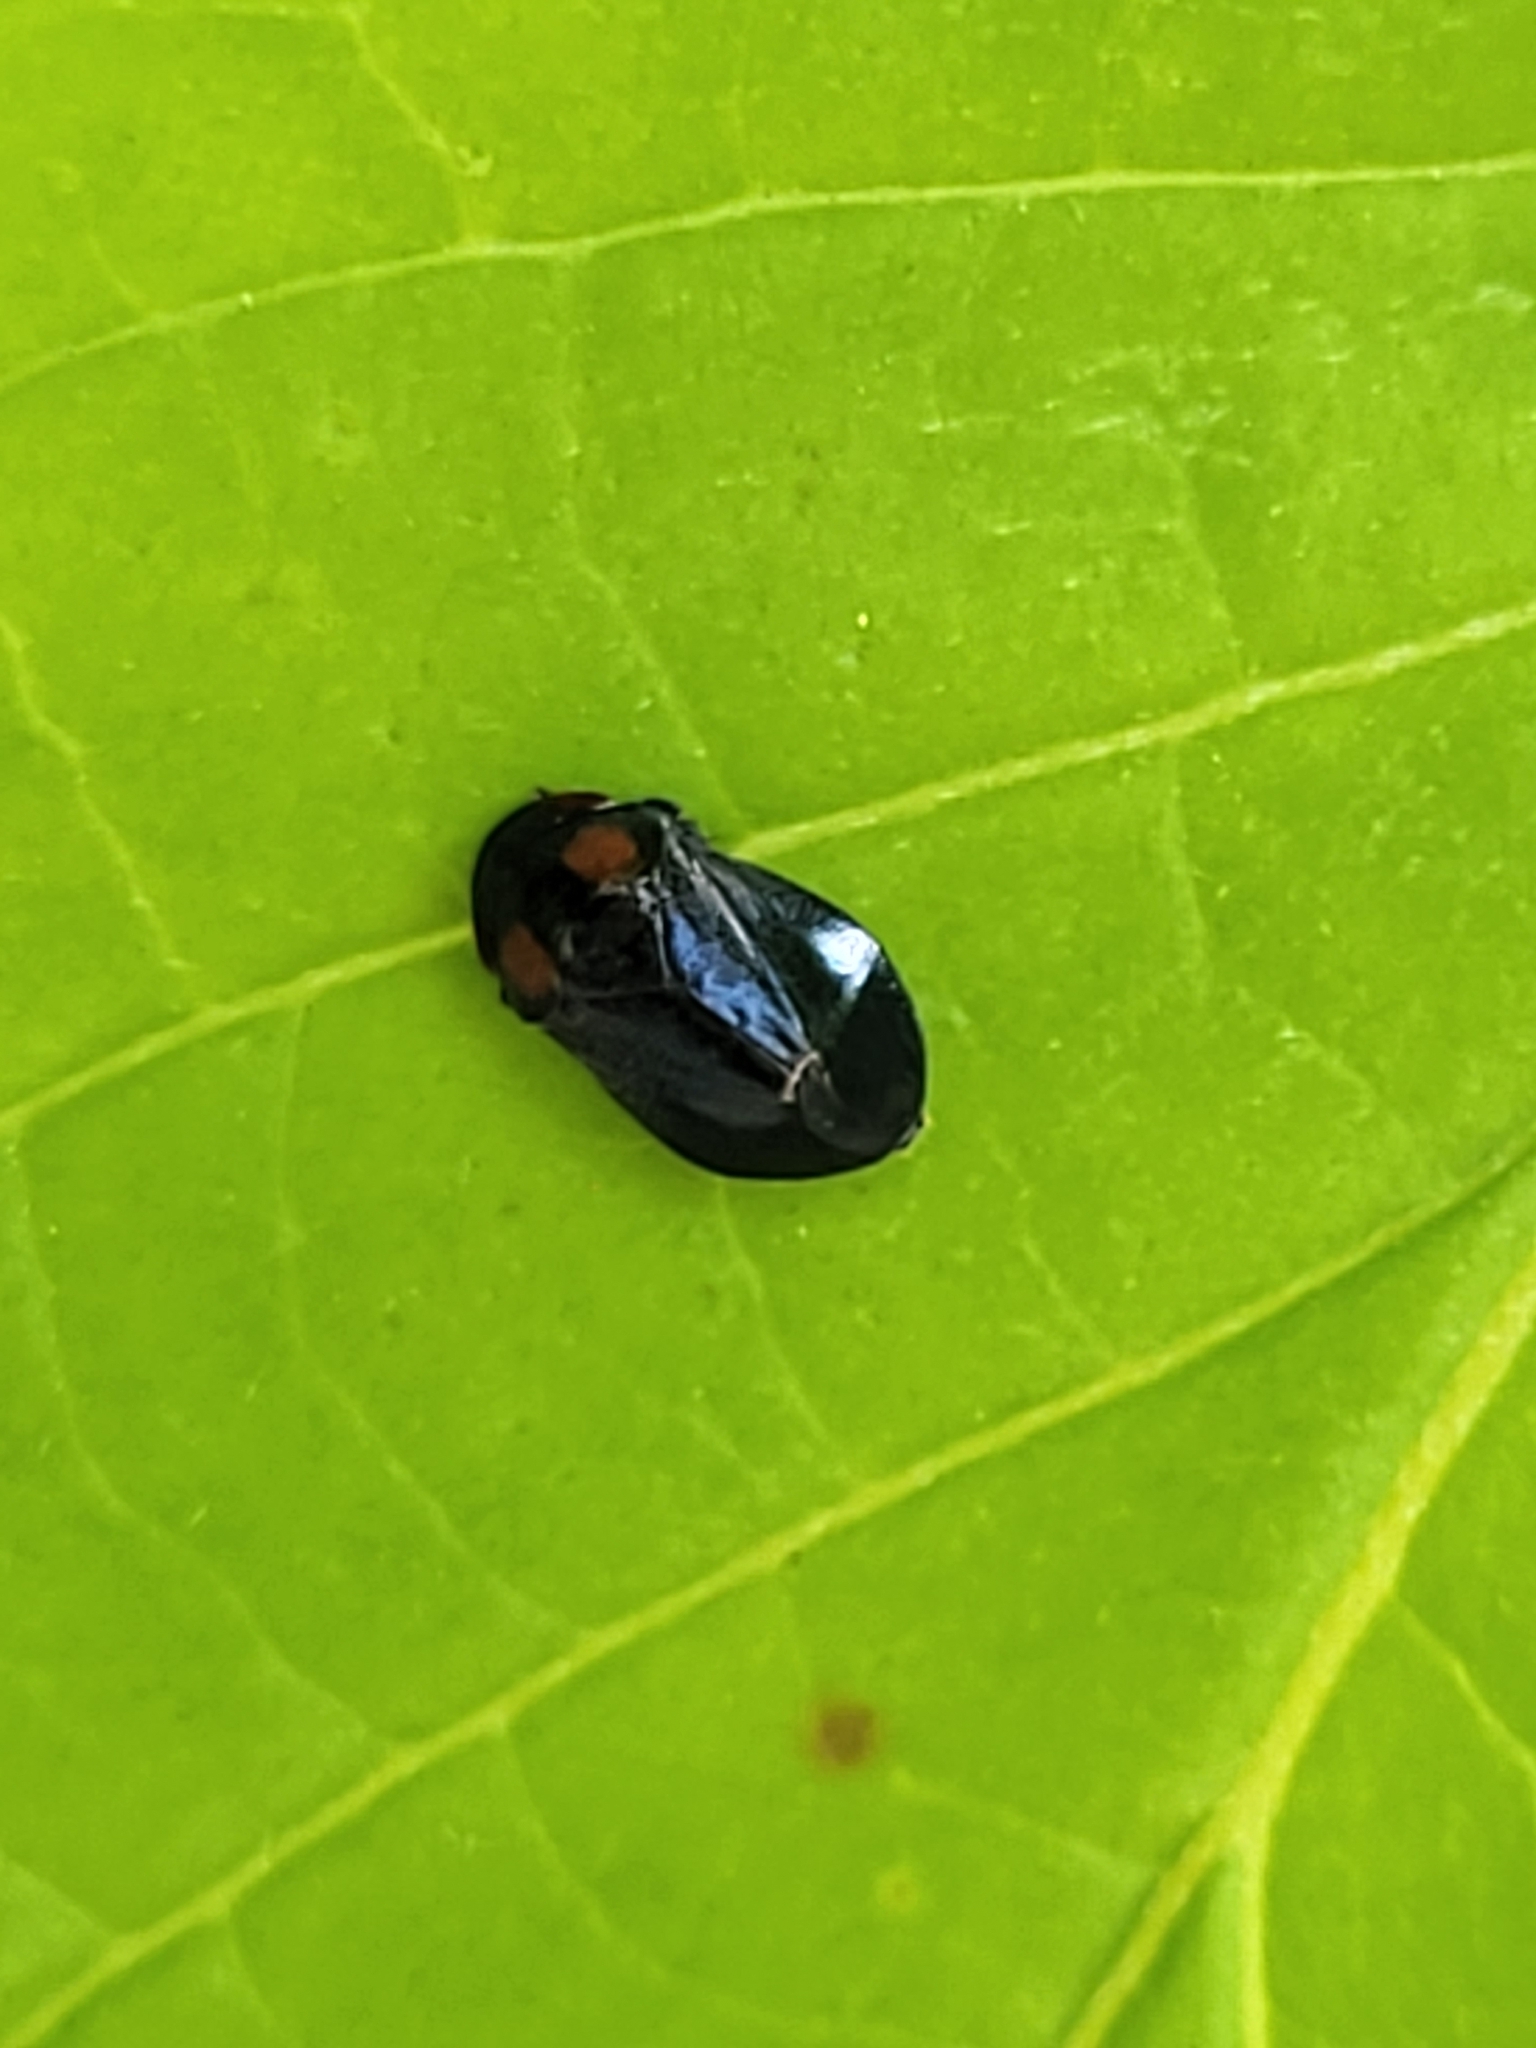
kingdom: Animalia
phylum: Arthropoda
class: Insecta
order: Hemiptera
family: Cicadellidae
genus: Penthimia
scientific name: Penthimia nigra
